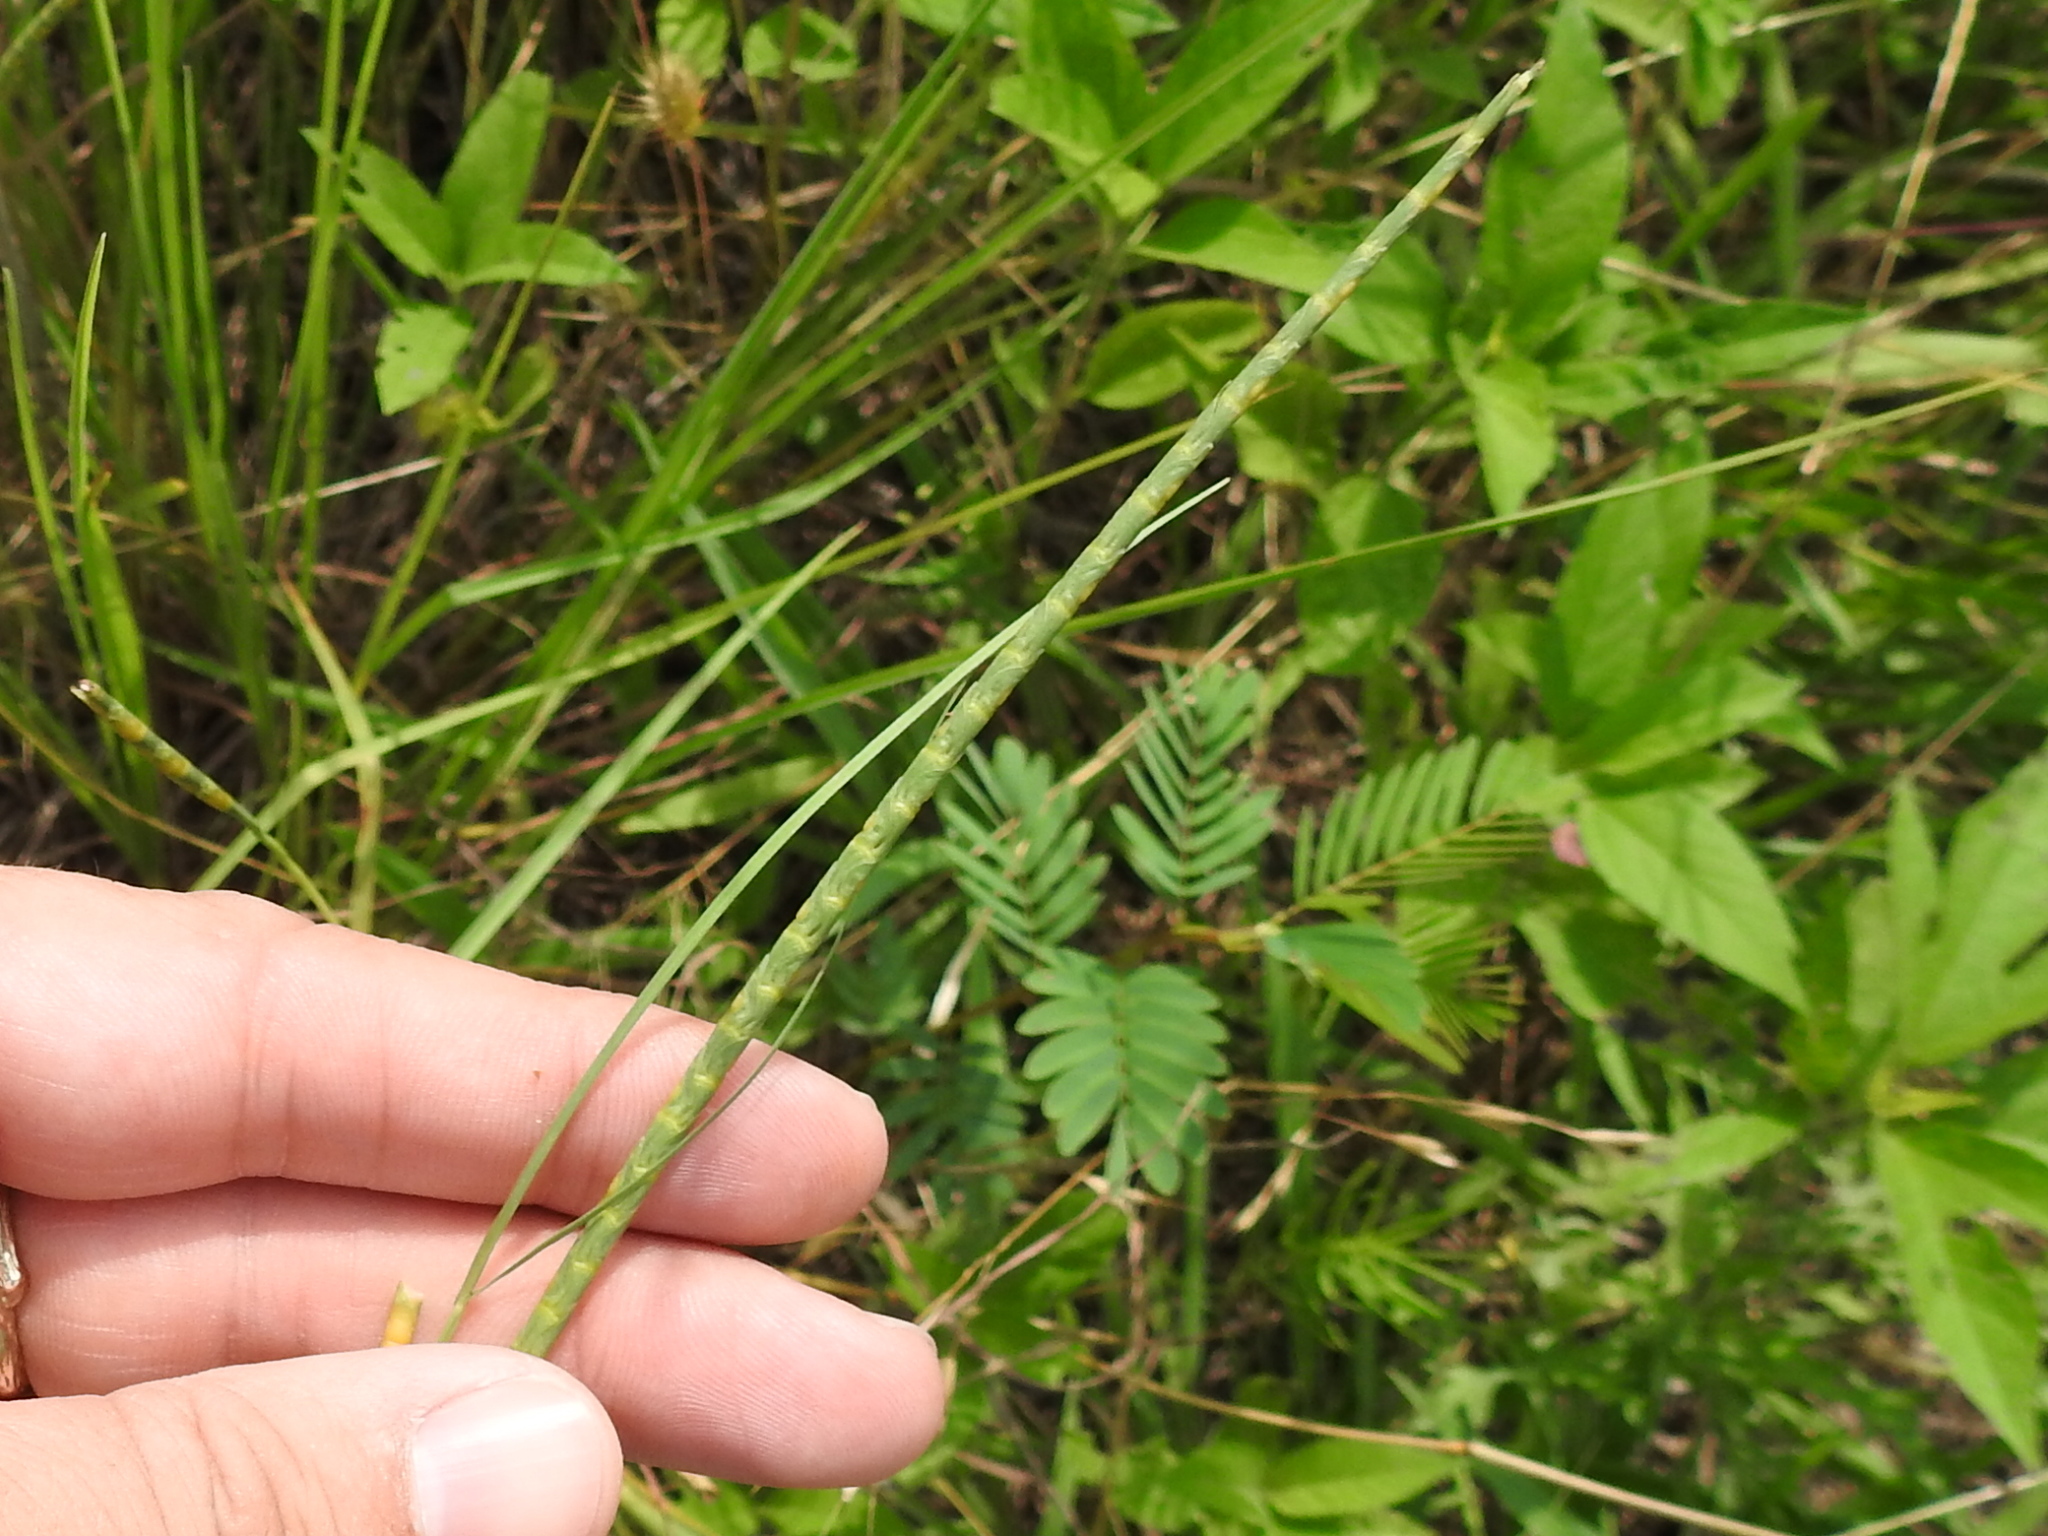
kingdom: Plantae
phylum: Tracheophyta
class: Liliopsida
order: Poales
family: Poaceae
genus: Rottboellia
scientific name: Rottboellia campestris
